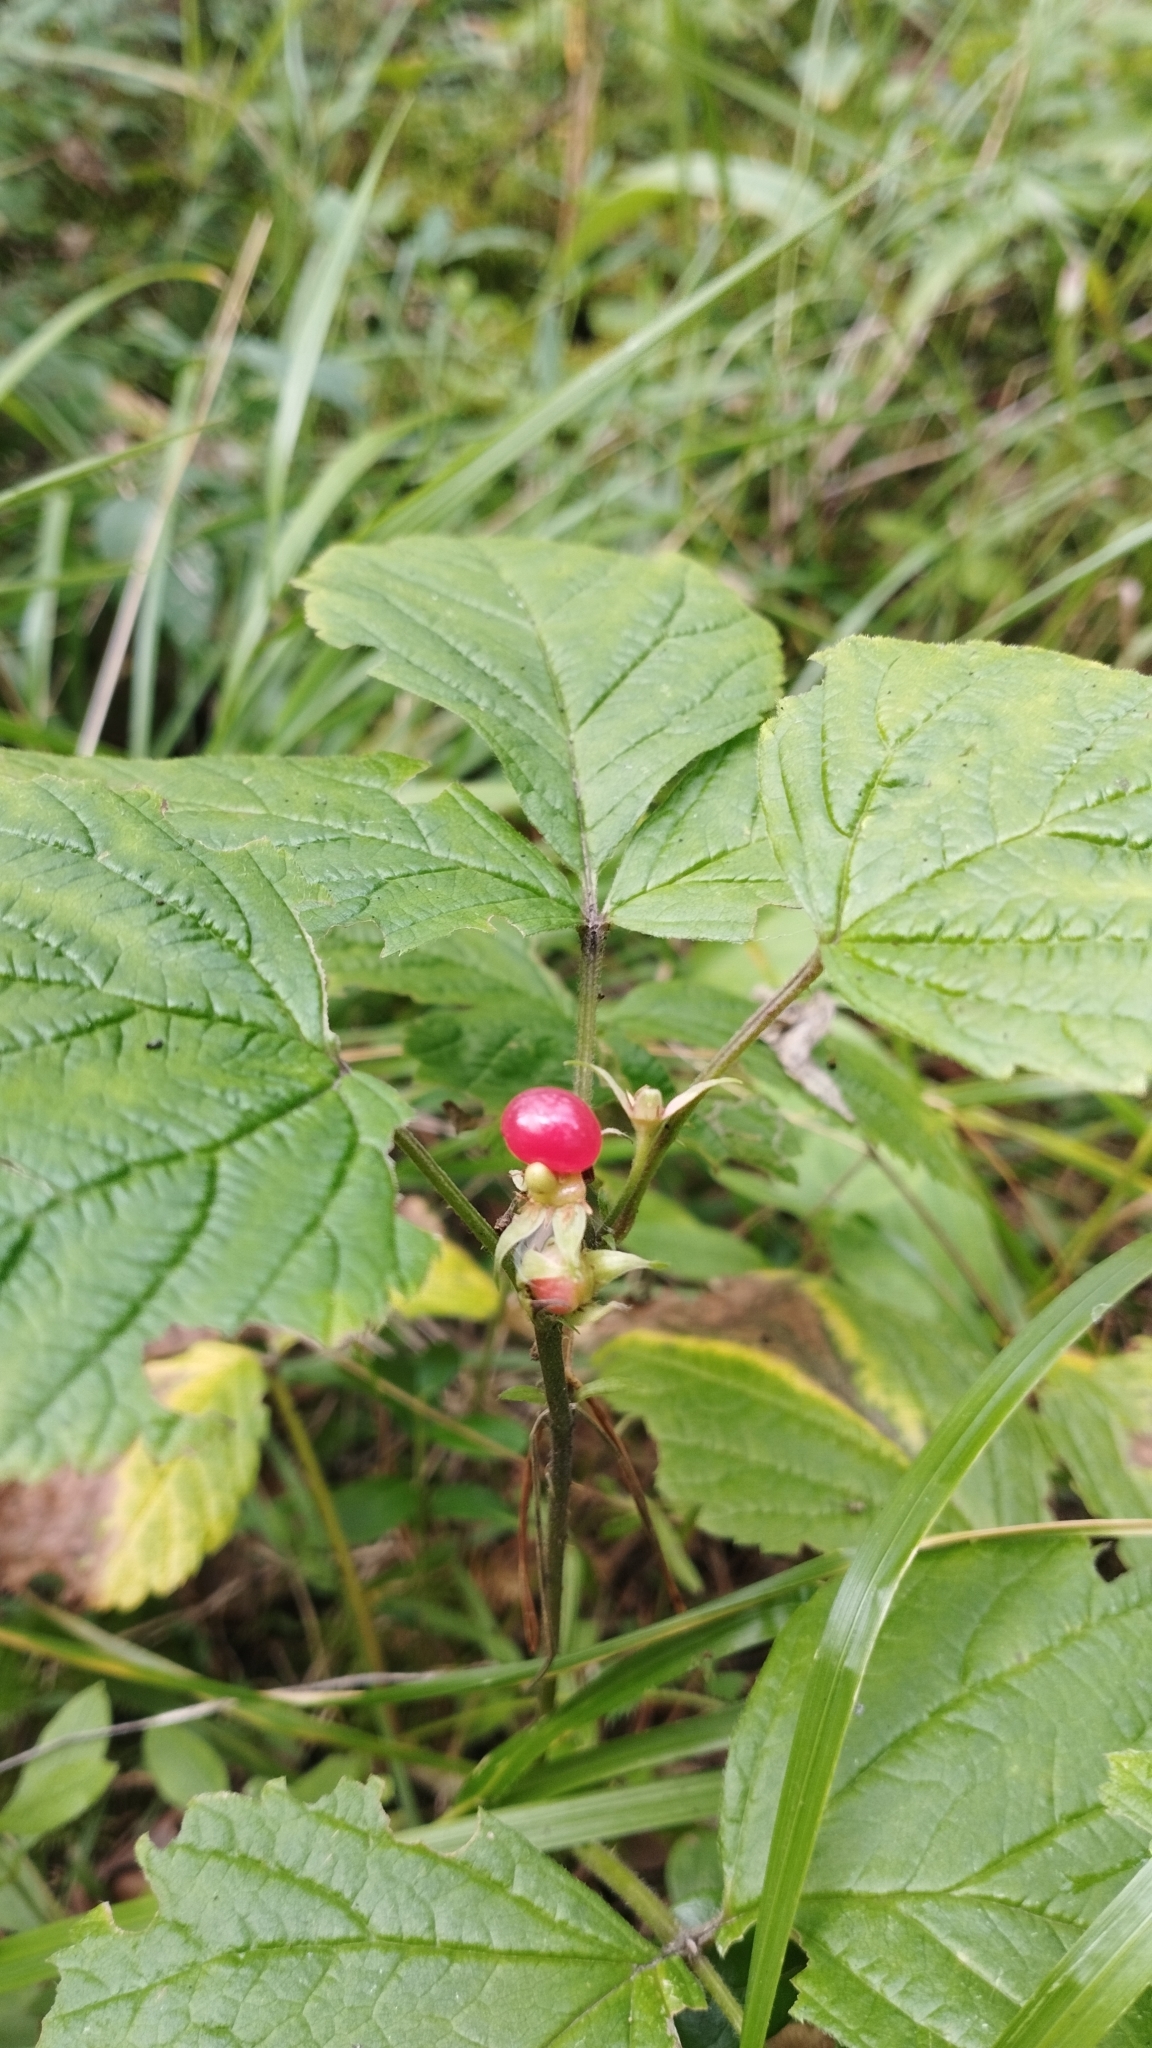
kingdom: Plantae
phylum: Tracheophyta
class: Magnoliopsida
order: Rosales
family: Rosaceae
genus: Rubus
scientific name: Rubus saxatilis
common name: Stone bramble
